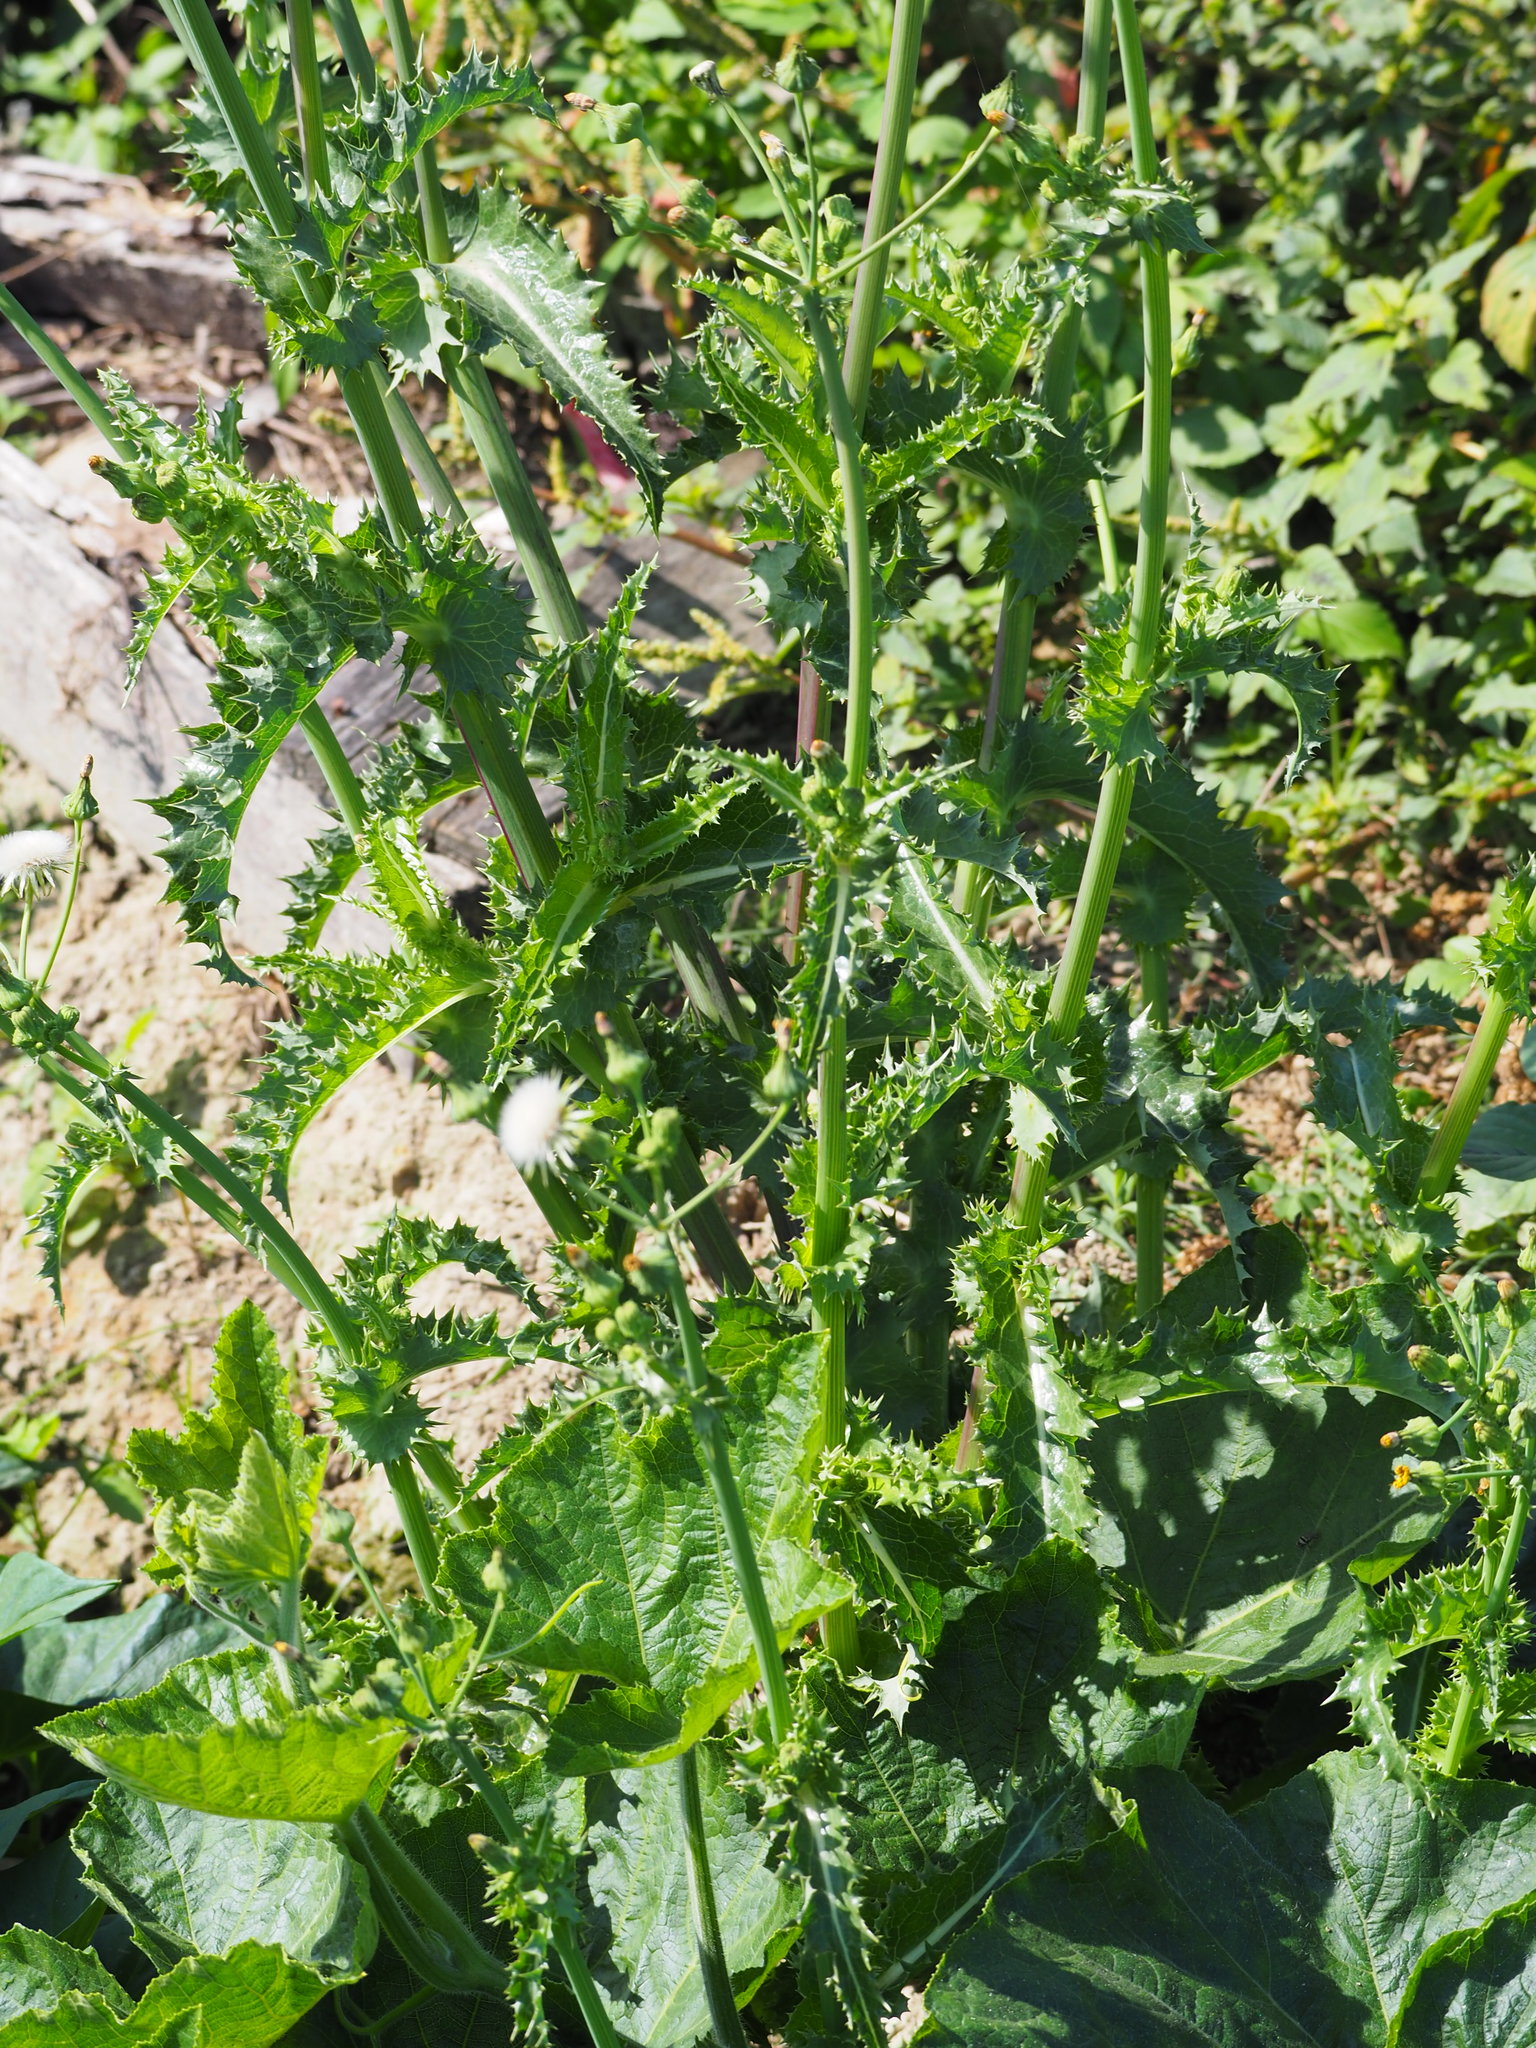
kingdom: Plantae
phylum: Tracheophyta
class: Magnoliopsida
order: Asterales
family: Asteraceae
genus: Sonchus
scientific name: Sonchus oleraceus
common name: Common sowthistle
